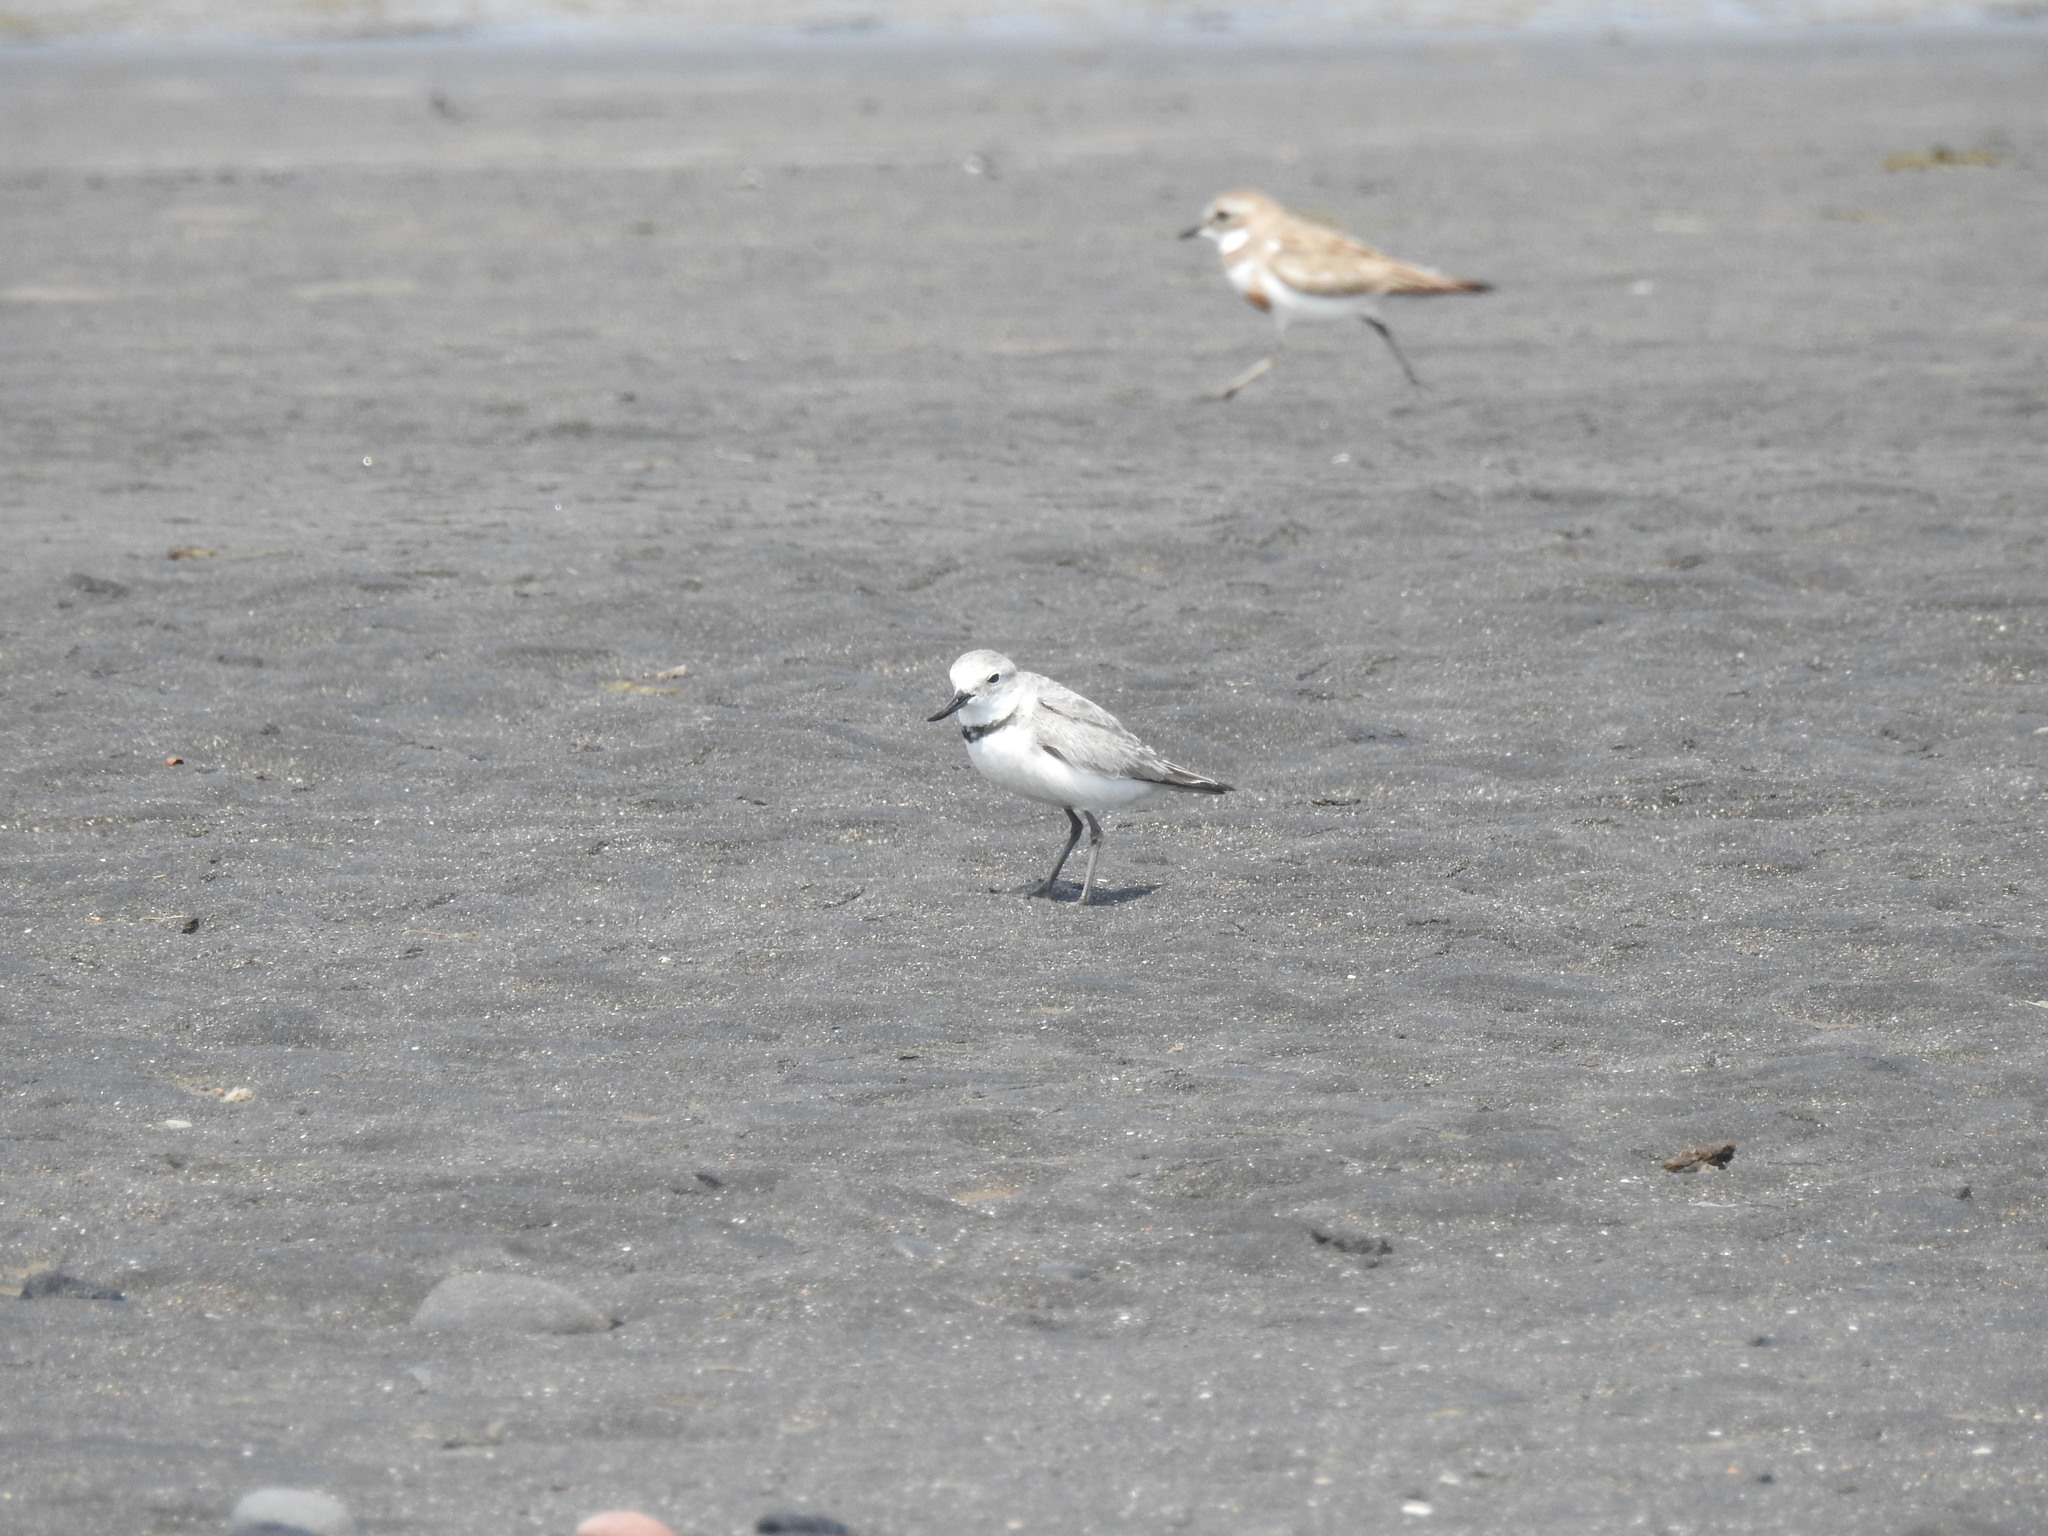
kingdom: Animalia
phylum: Chordata
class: Aves
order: Charadriiformes
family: Charadriidae
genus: Anarhynchus
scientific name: Anarhynchus frontalis
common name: Wrybill
